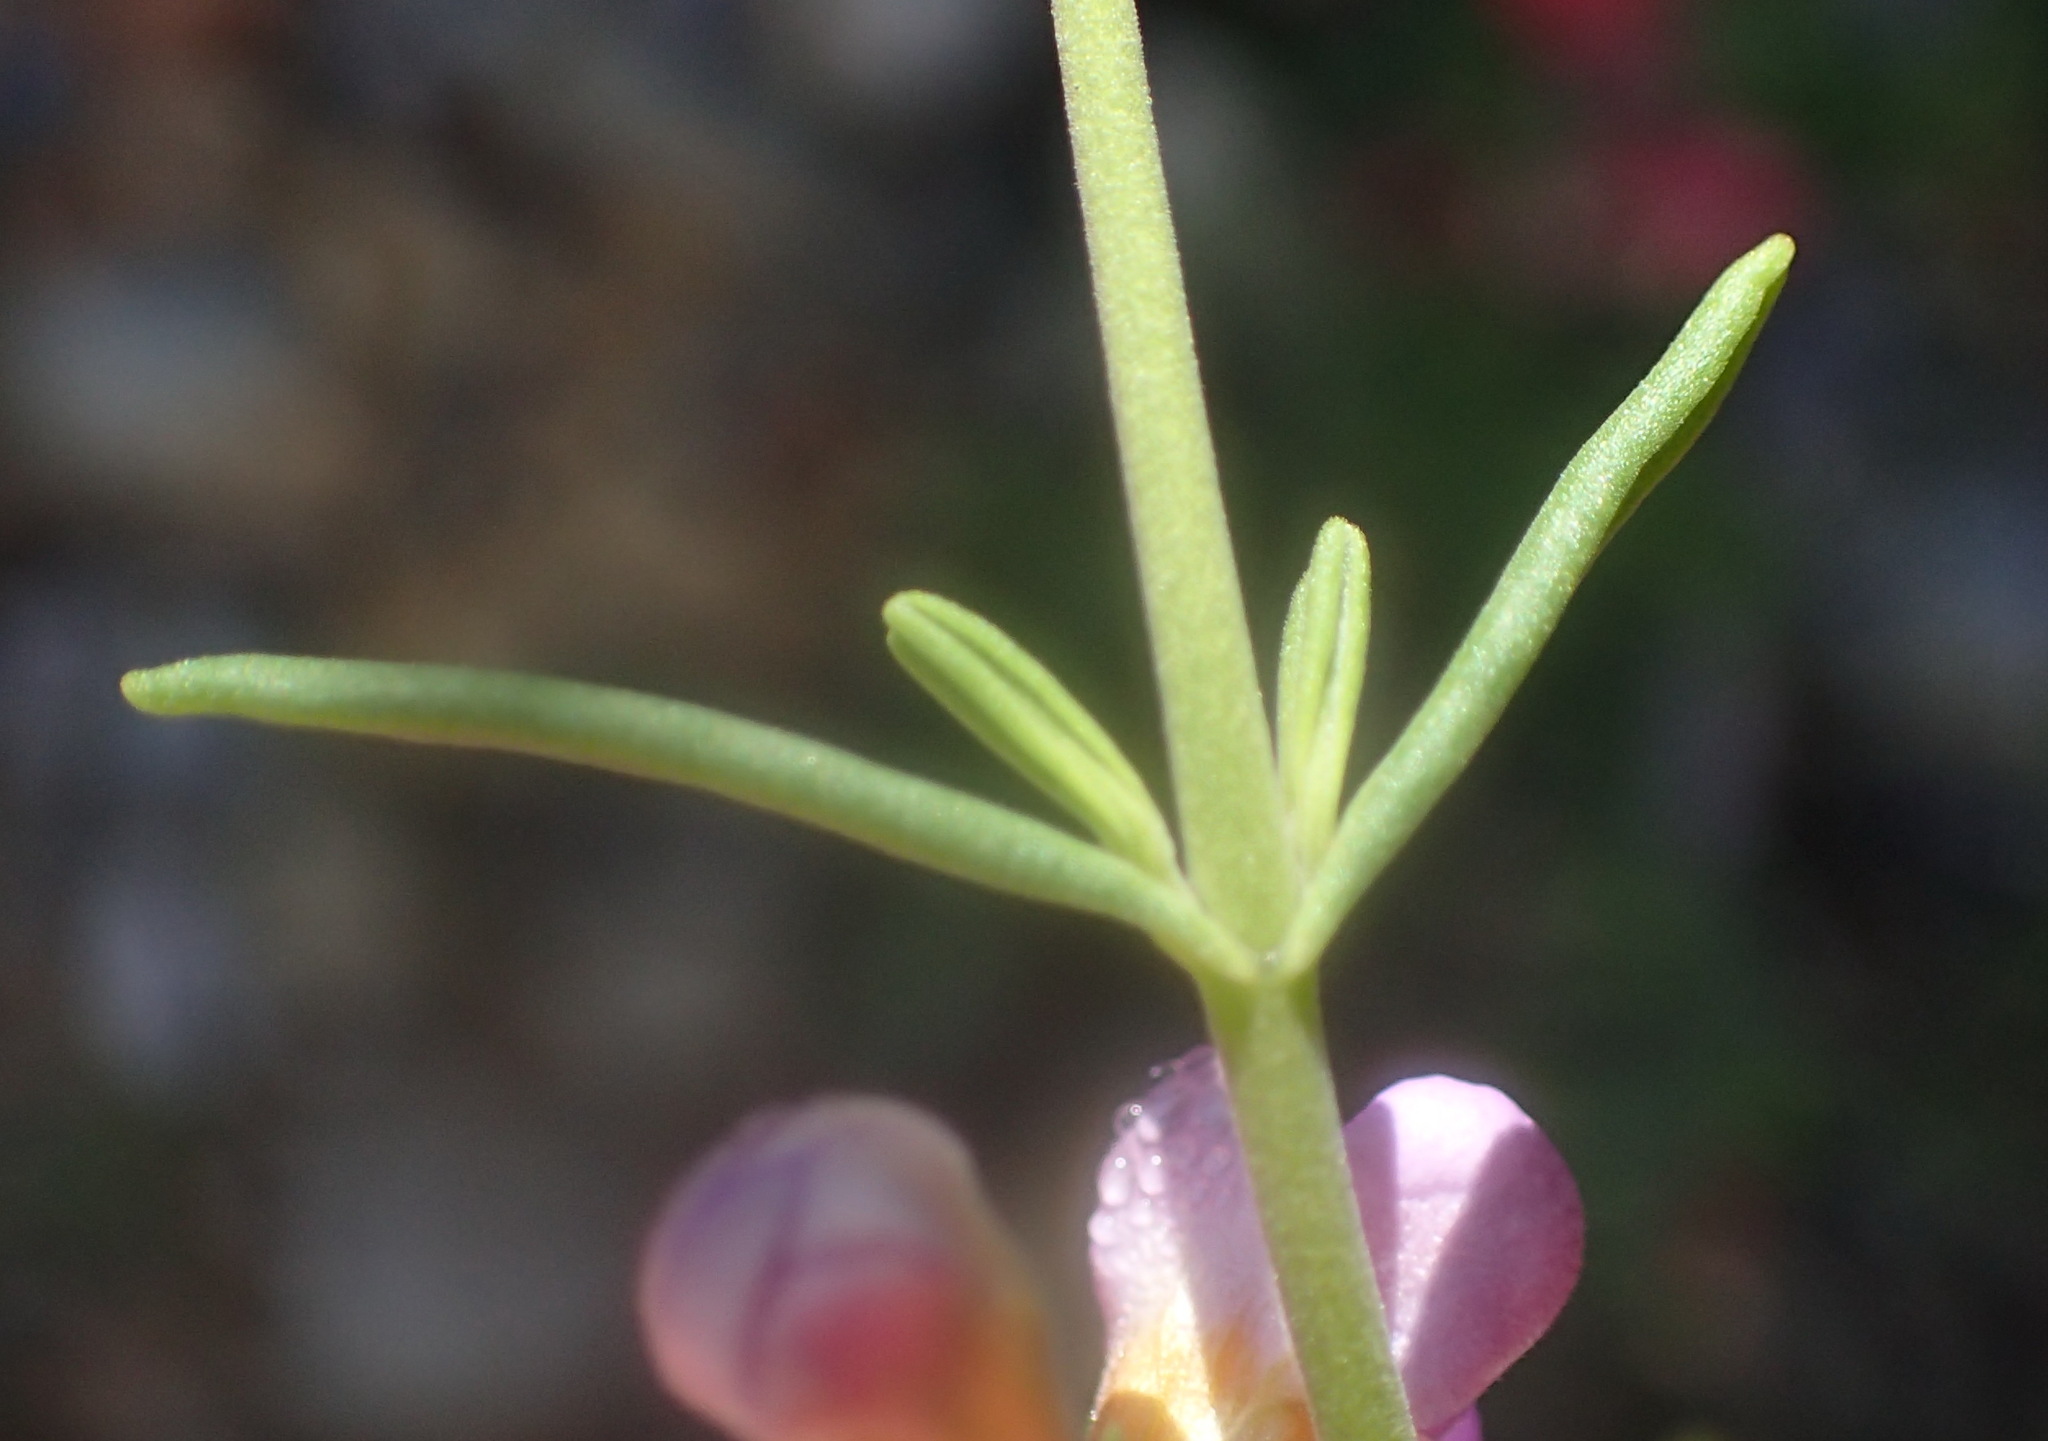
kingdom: Plantae
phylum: Tracheophyta
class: Magnoliopsida
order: Lamiales
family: Scrophulariaceae
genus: Chaenostoma
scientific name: Chaenostoma revolutum
